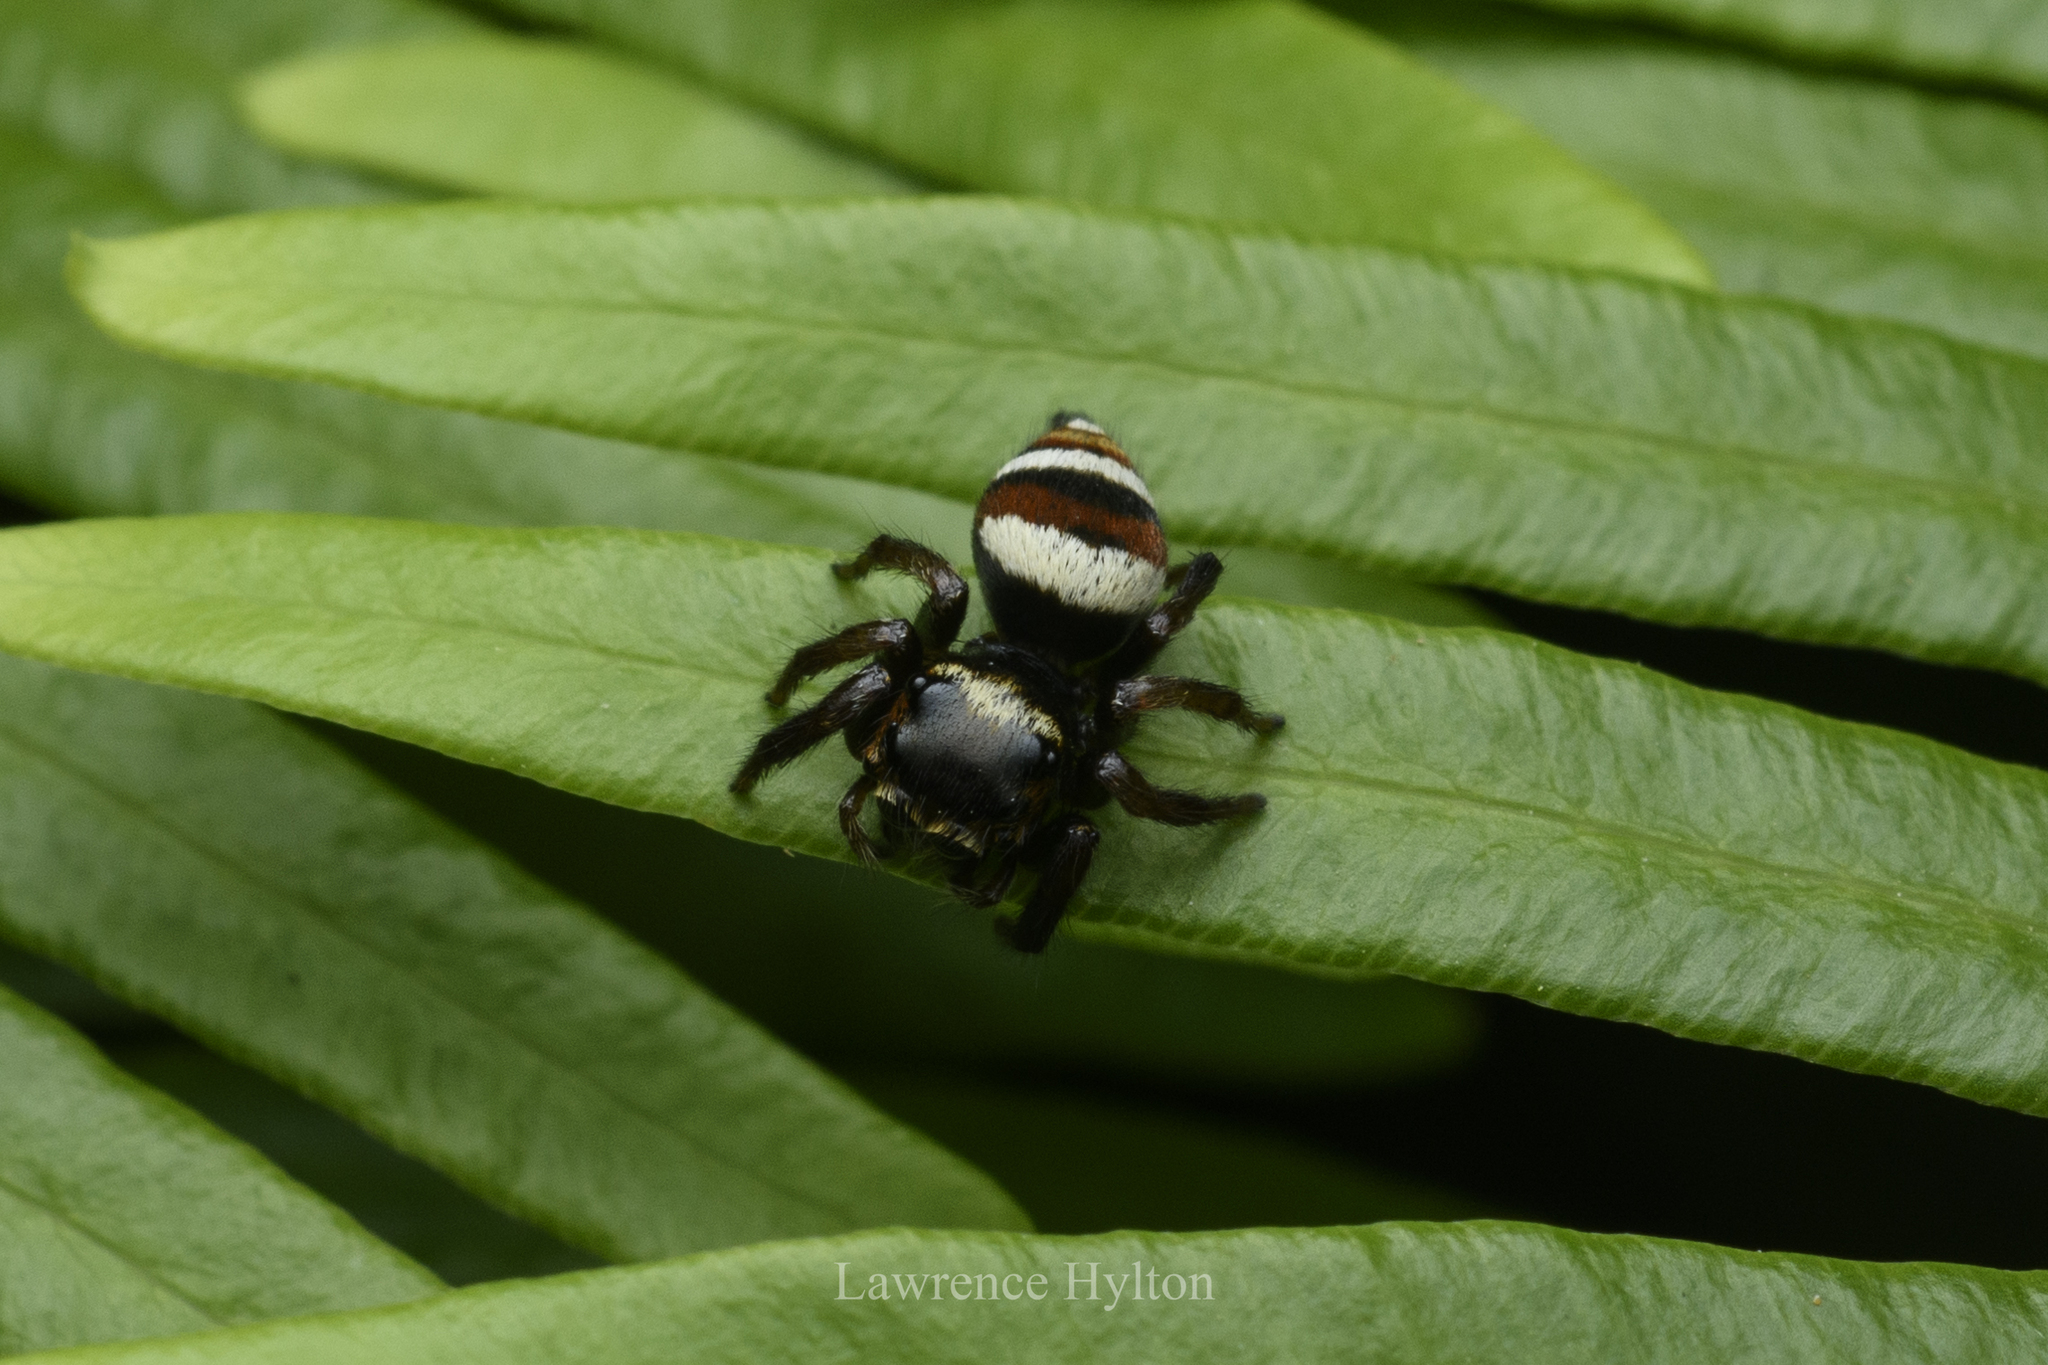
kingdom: Animalia
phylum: Arthropoda
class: Arachnida
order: Araneae
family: Salticidae
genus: Ptocasius
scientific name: Ptocasius strupifer
